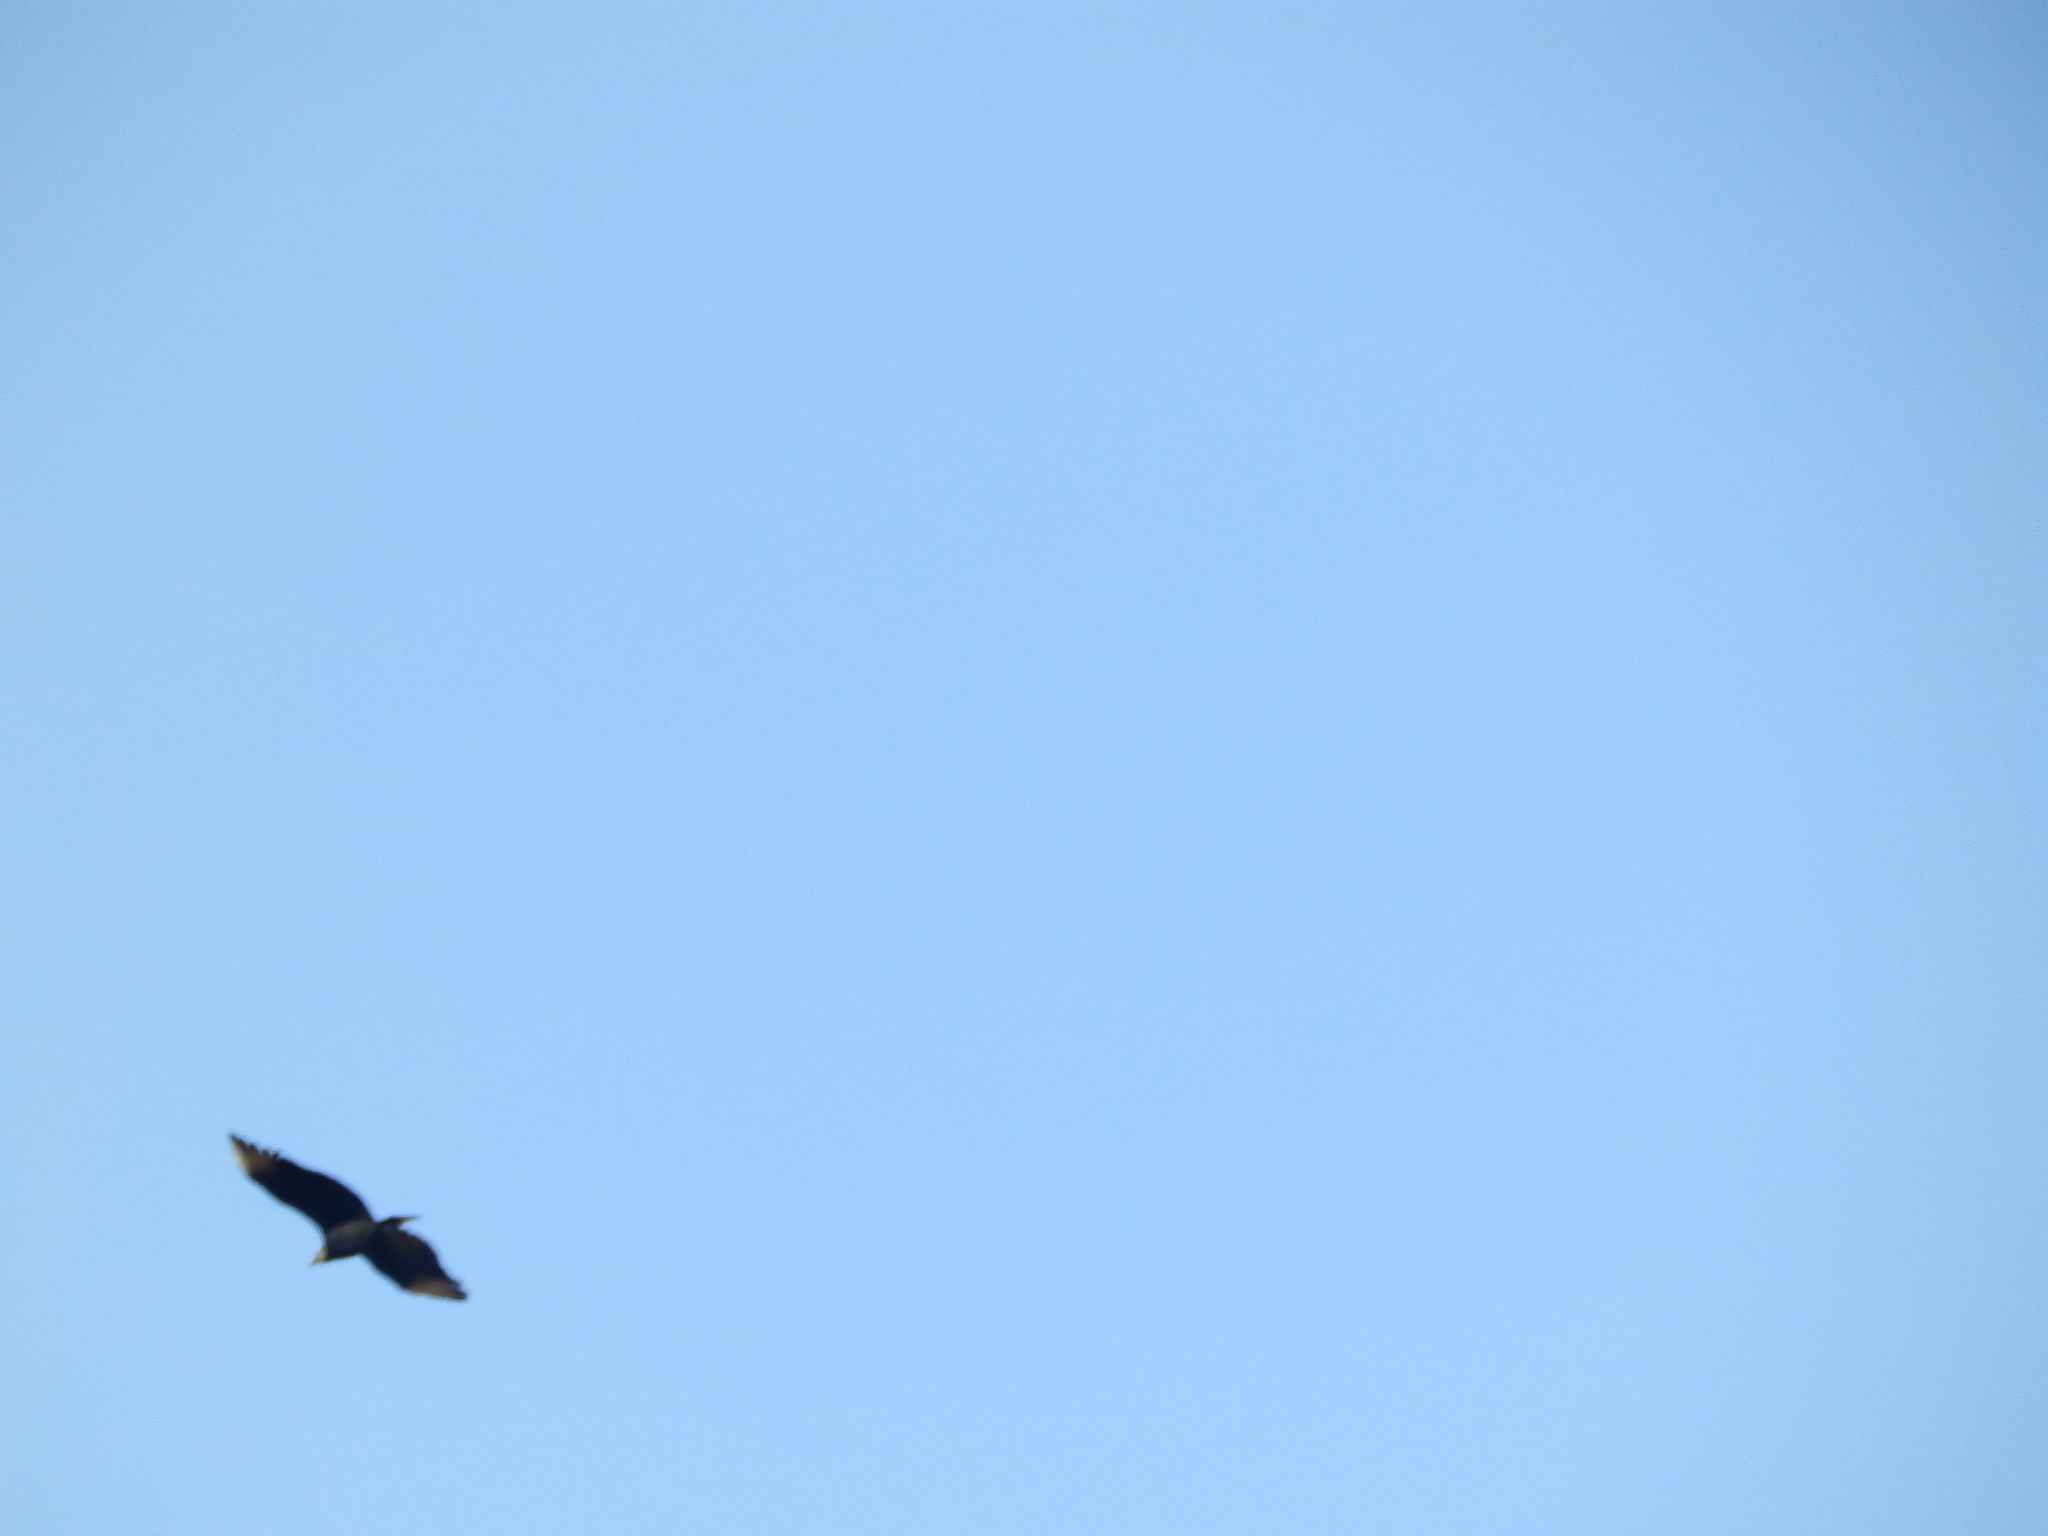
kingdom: Animalia
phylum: Chordata
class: Aves
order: Accipitriformes
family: Cathartidae
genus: Coragyps
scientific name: Coragyps atratus
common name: Black vulture
